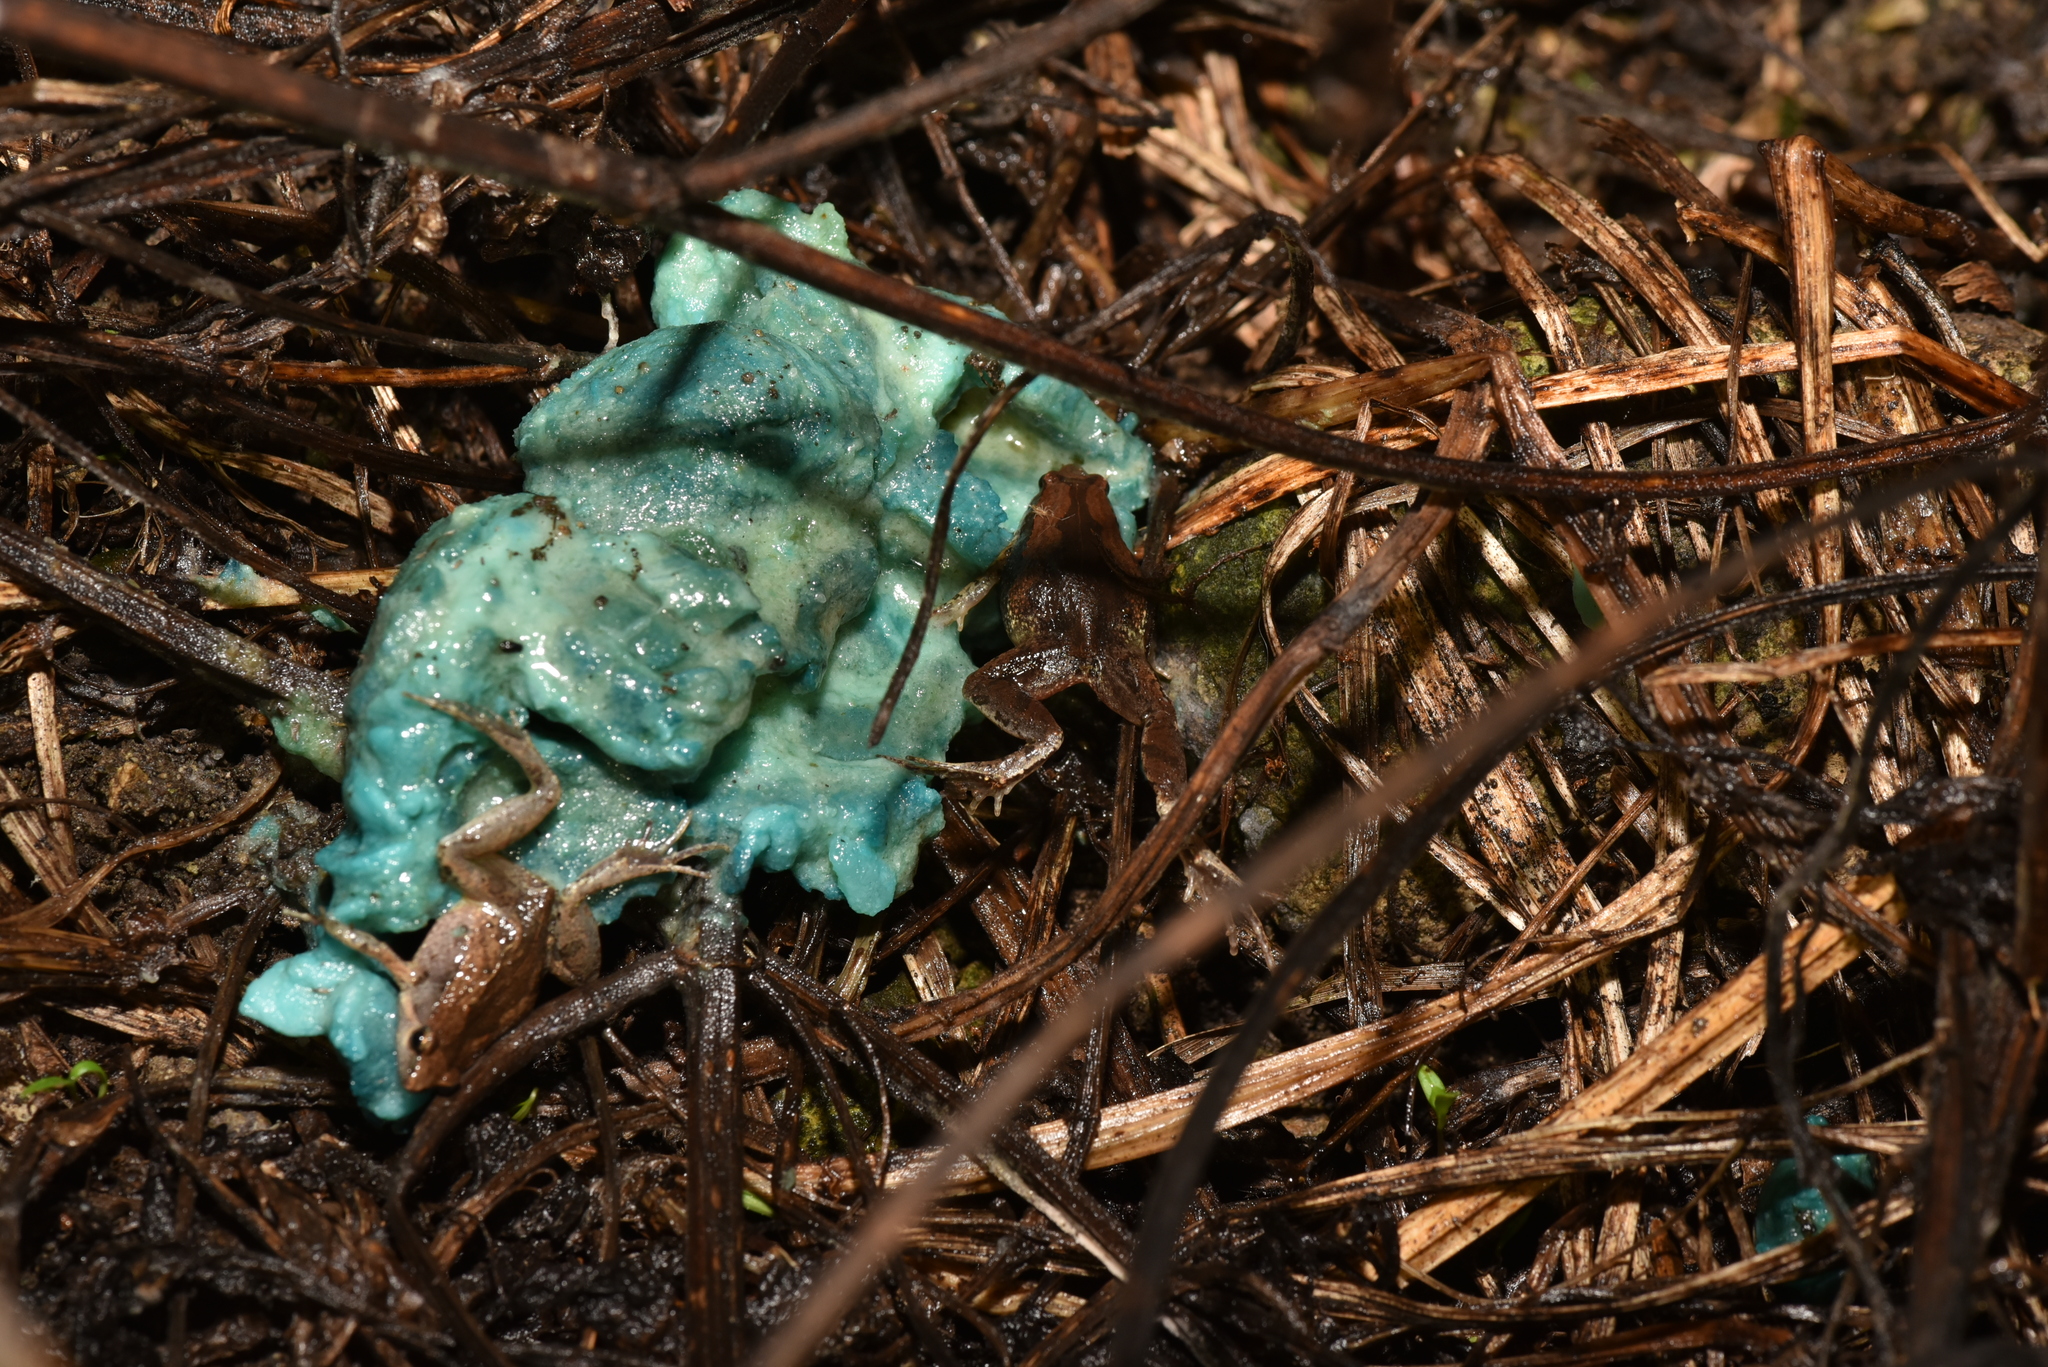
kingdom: Animalia
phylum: Chordata
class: Amphibia
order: Anura
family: Microhylidae
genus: Microhyla
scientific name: Microhyla fissipes
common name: Ornate narrow-mouthed frog
